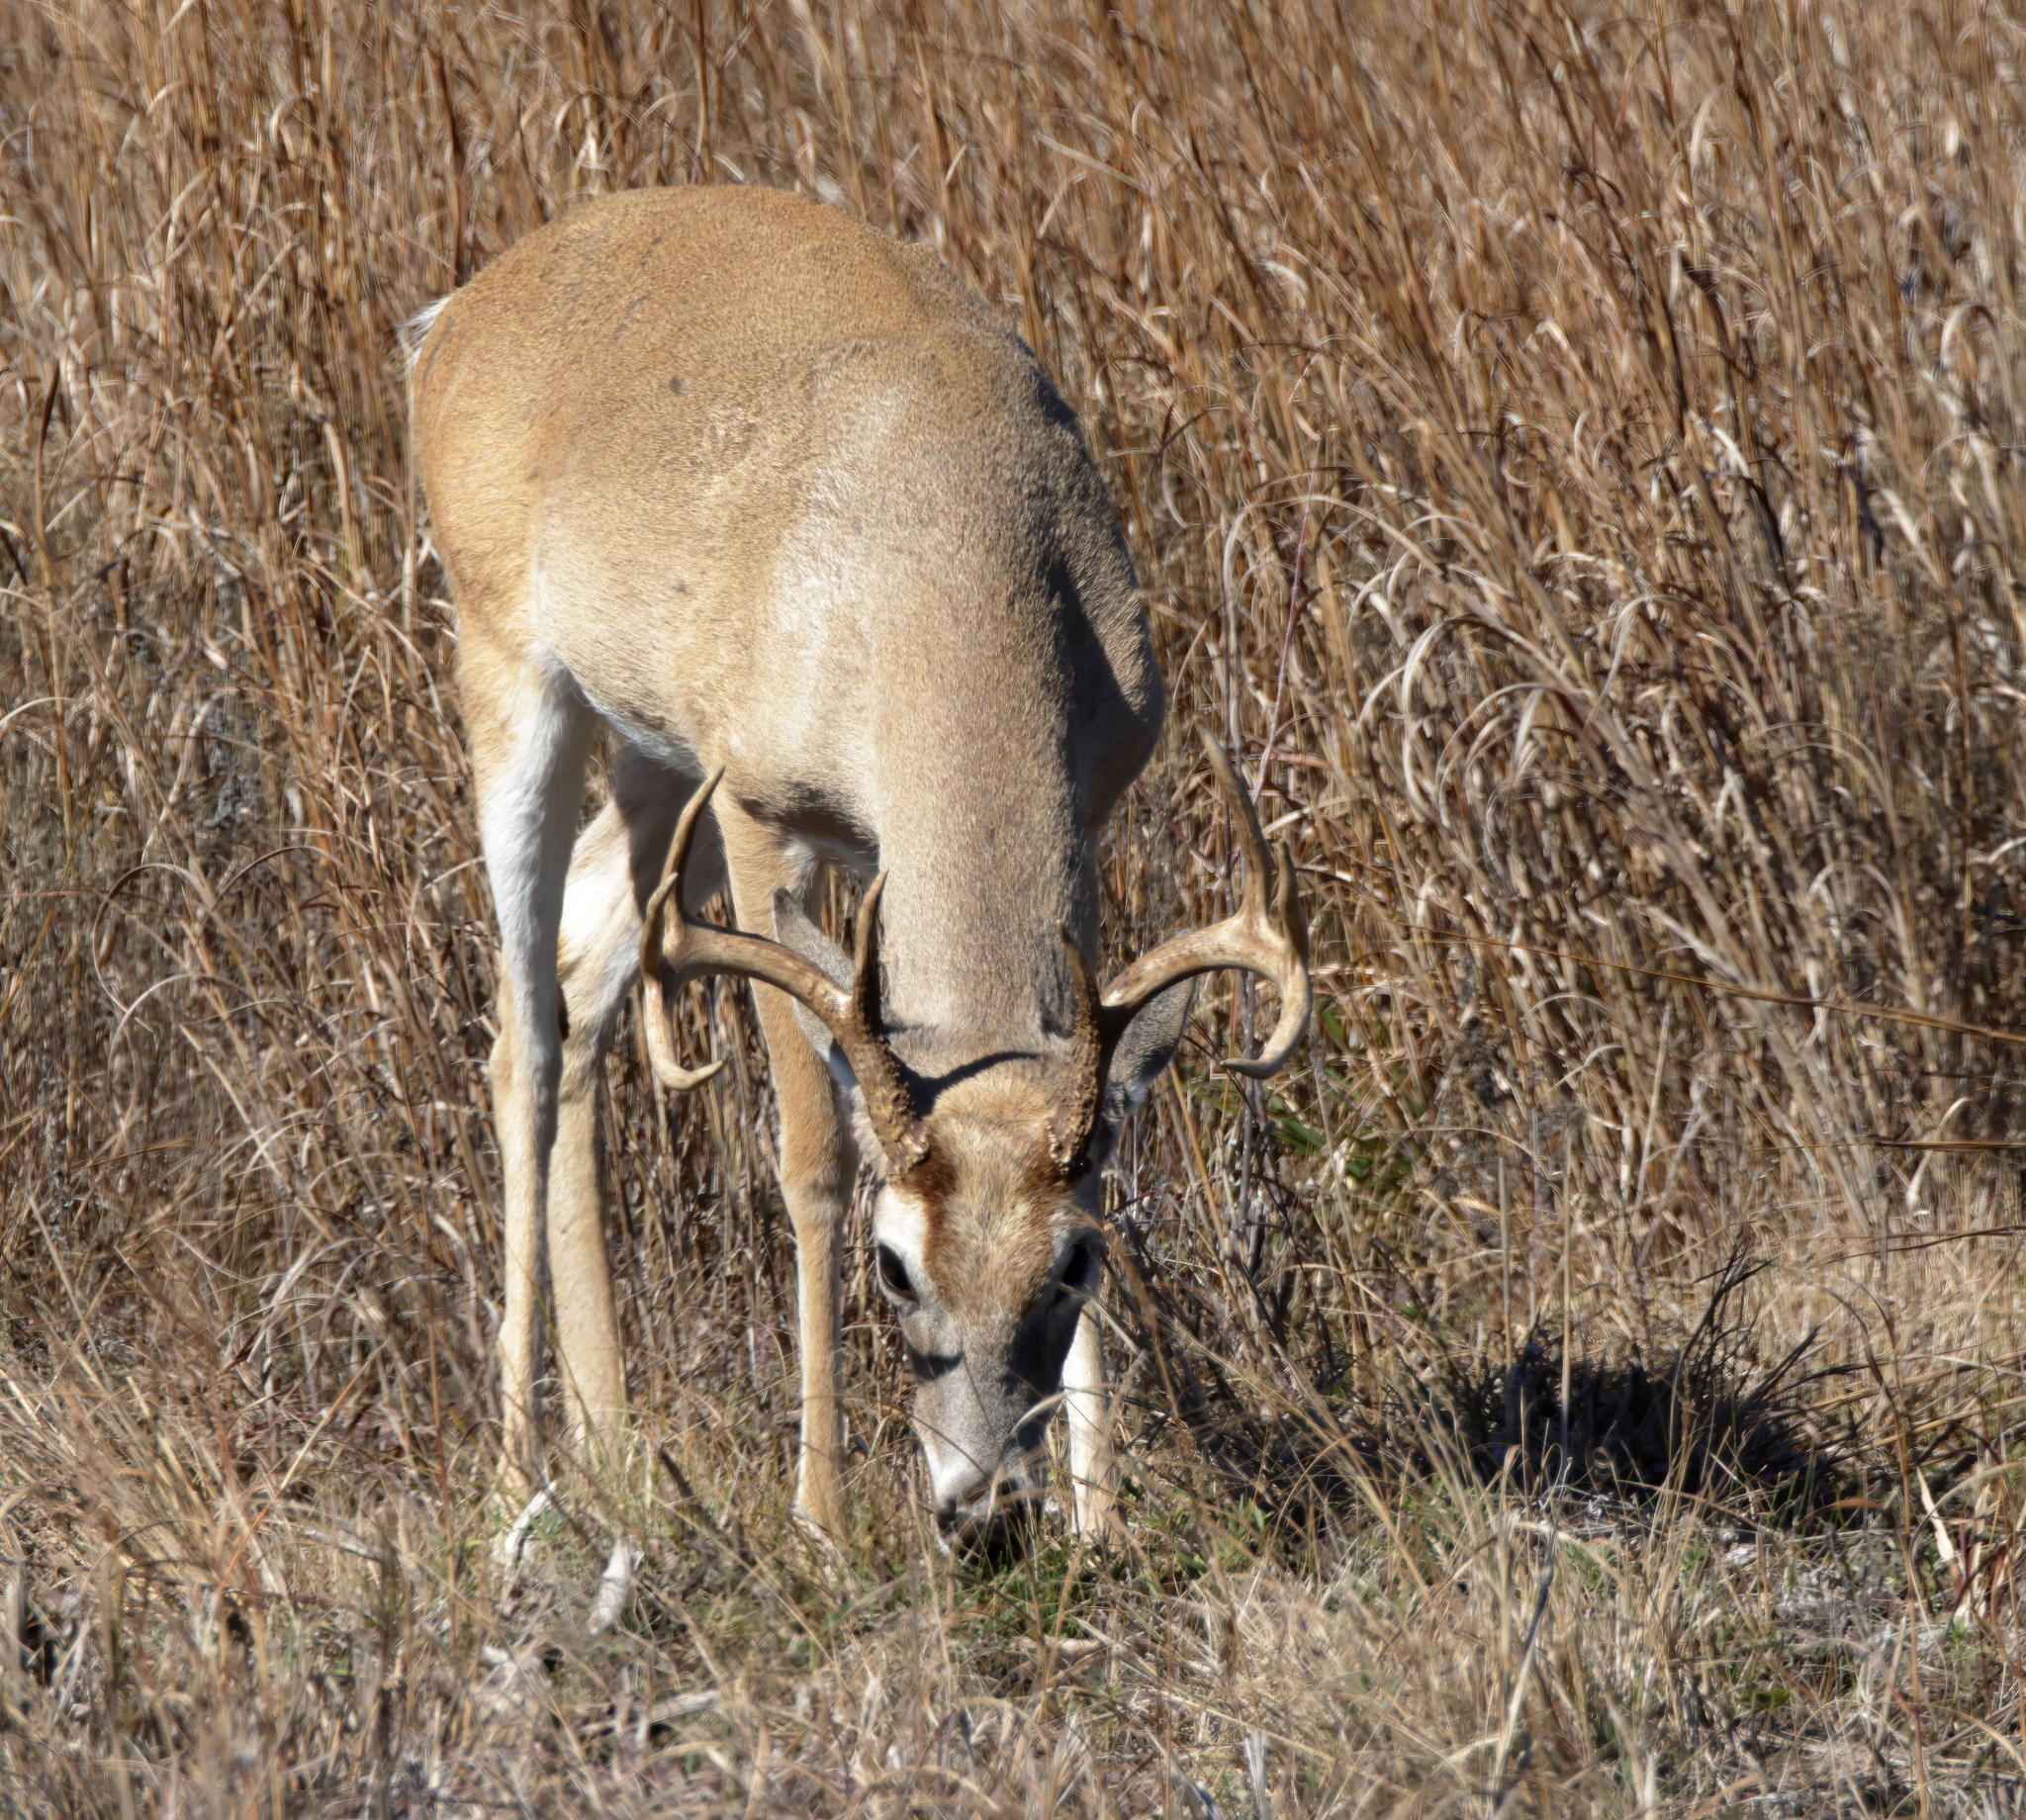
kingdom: Animalia
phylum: Chordata
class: Mammalia
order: Artiodactyla
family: Cervidae
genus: Odocoileus
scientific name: Odocoileus virginianus
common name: White-tailed deer
